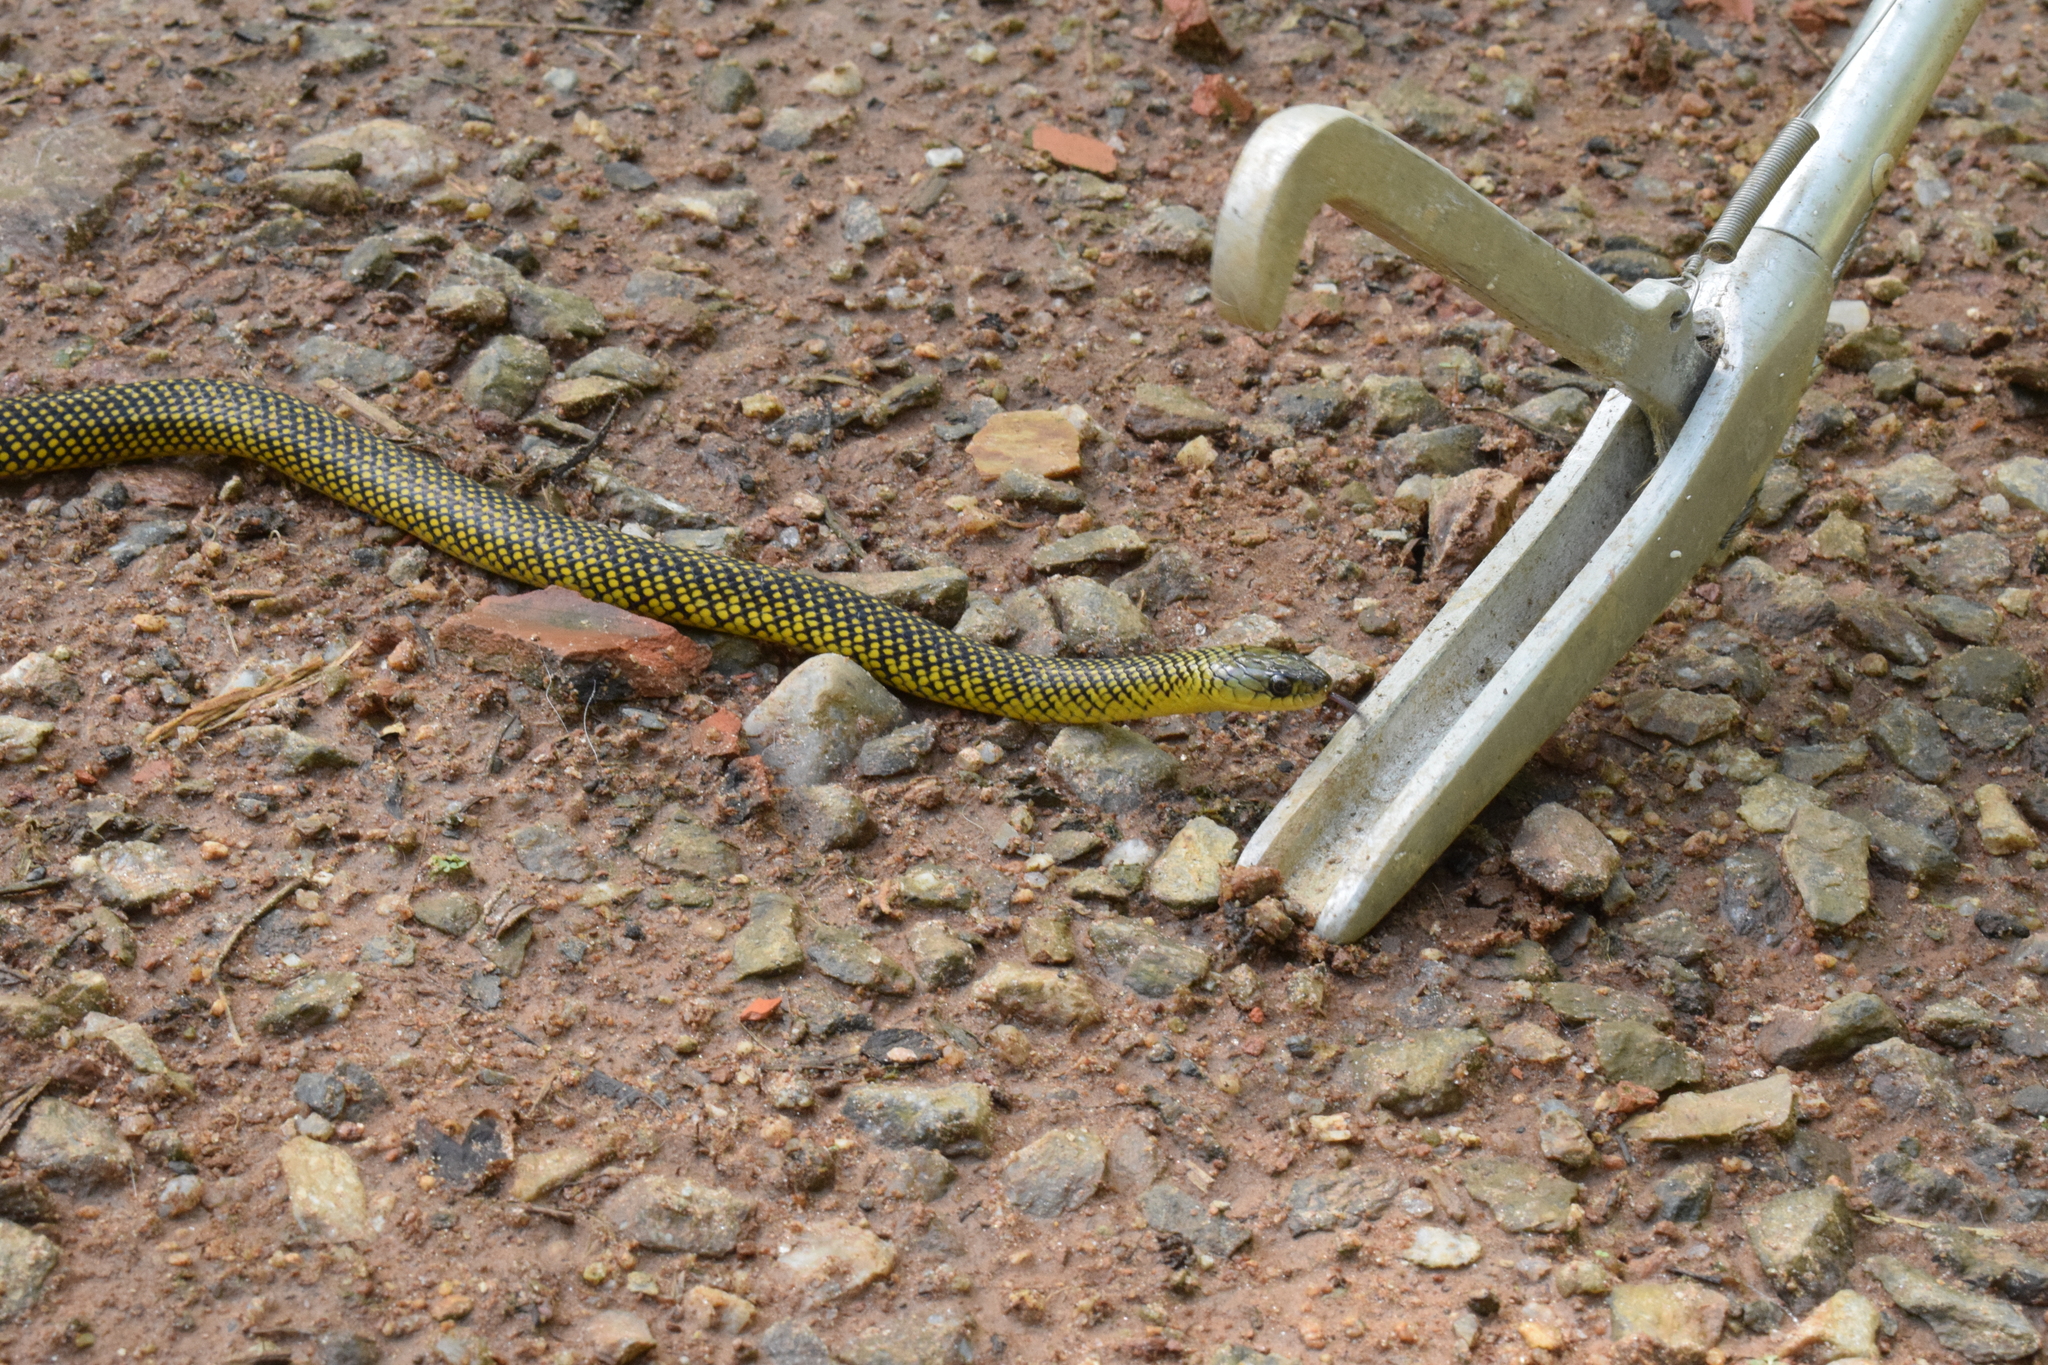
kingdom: Animalia
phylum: Chordata
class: Squamata
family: Colubridae
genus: Erythrolamprus
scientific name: Erythrolamprus miliaris
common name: Military ground snake
